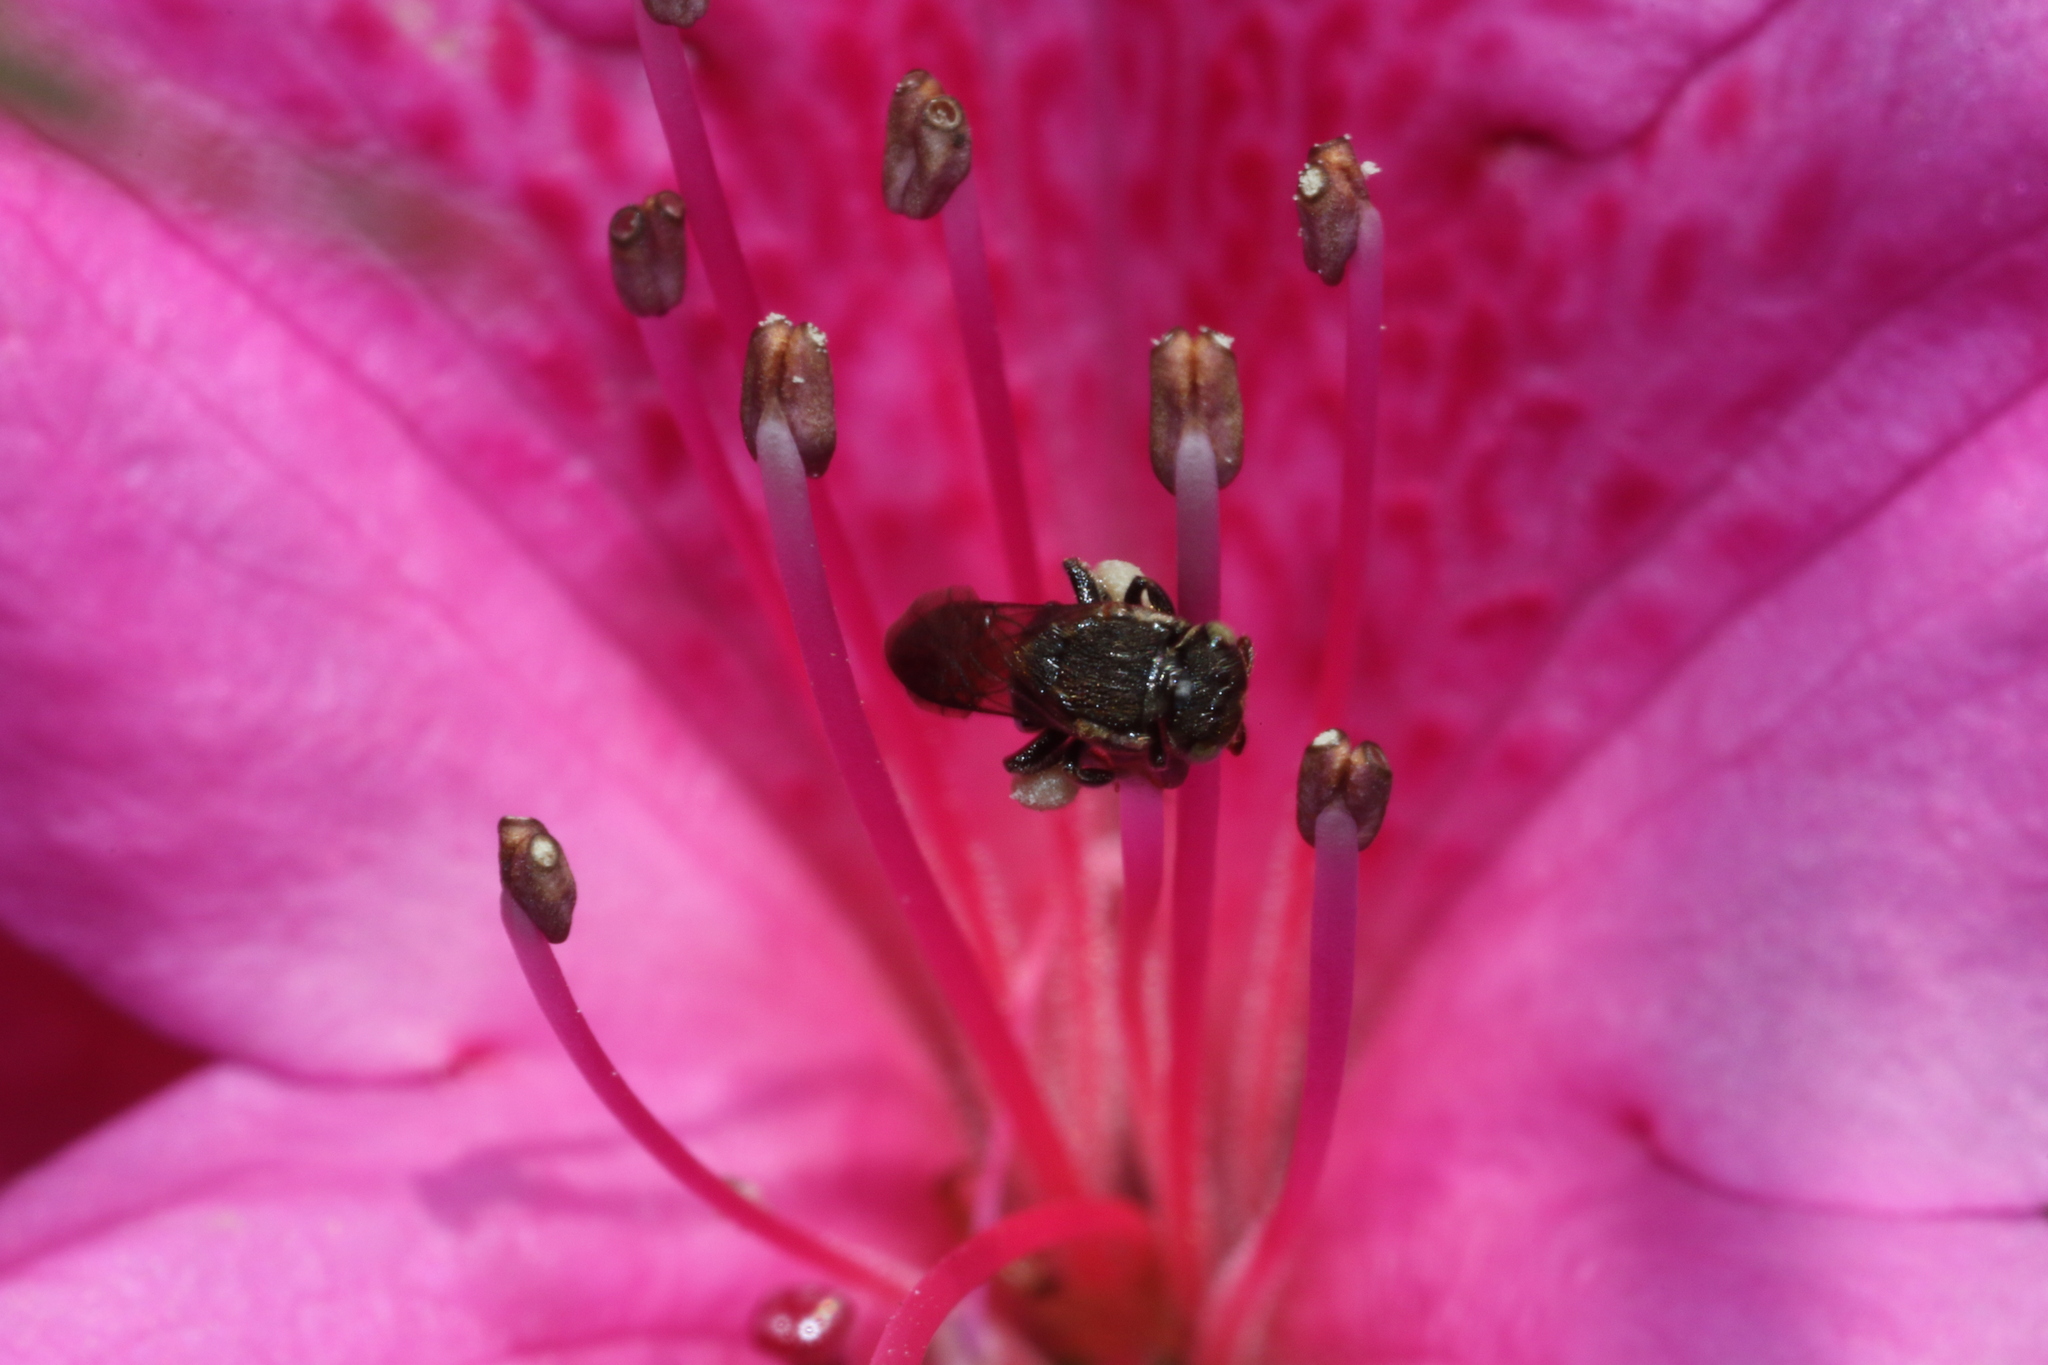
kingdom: Animalia
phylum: Arthropoda
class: Insecta
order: Hymenoptera
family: Apidae
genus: Nannotrigona
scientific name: Nannotrigona testaceicornis
